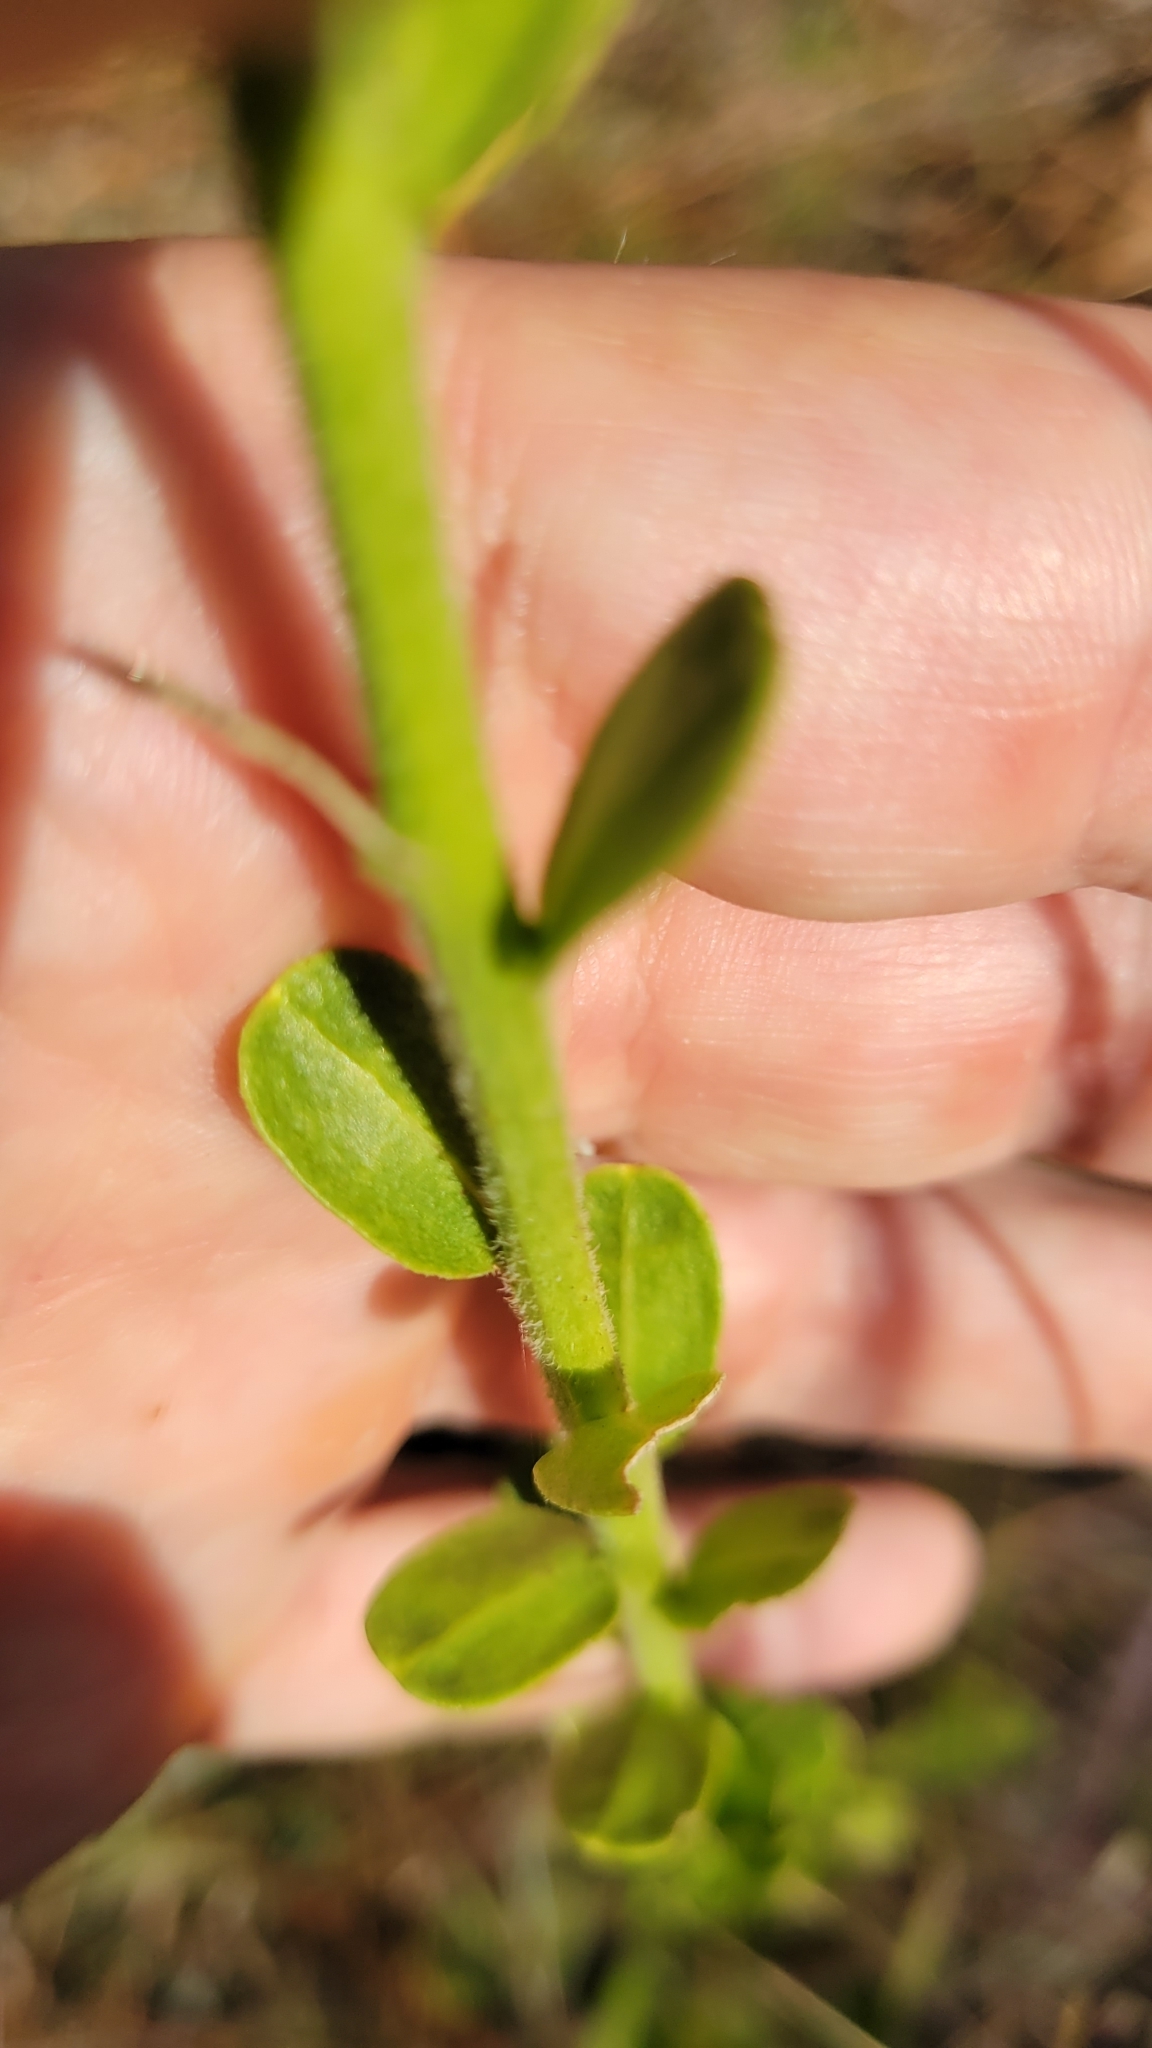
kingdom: Plantae
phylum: Tracheophyta
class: Magnoliopsida
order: Asterales
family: Asteraceae
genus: Carphephorus
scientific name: Carphephorus corymbosus
